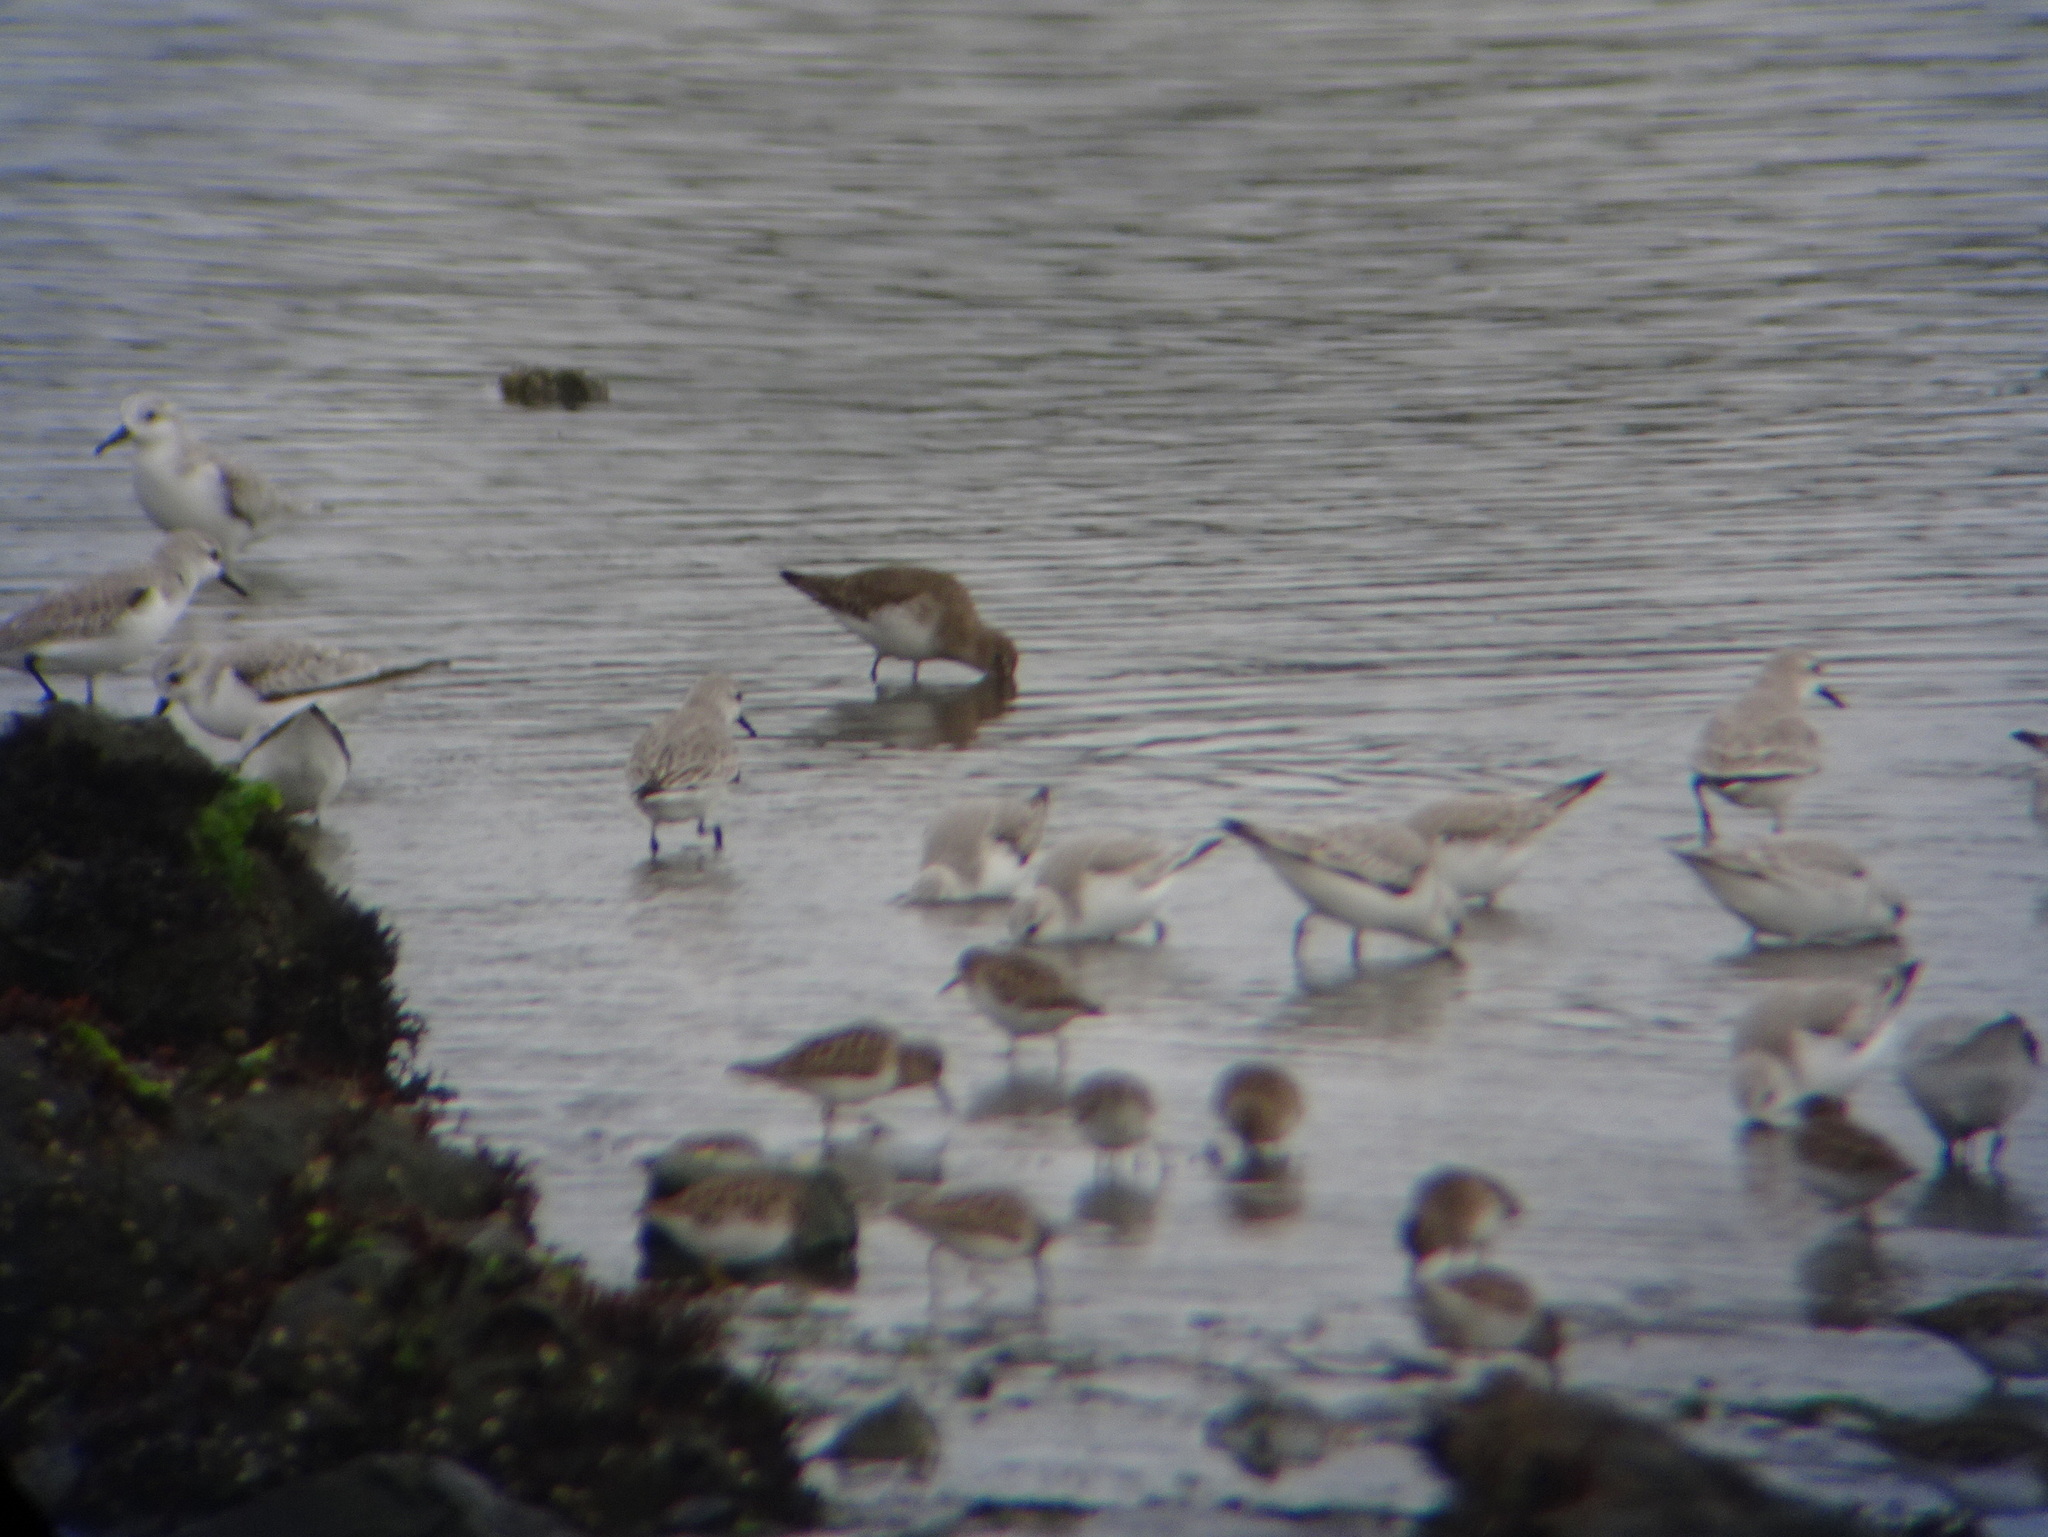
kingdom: Animalia
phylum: Chordata
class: Aves
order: Charadriiformes
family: Scolopacidae
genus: Calidris
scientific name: Calidris alpina
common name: Dunlin
